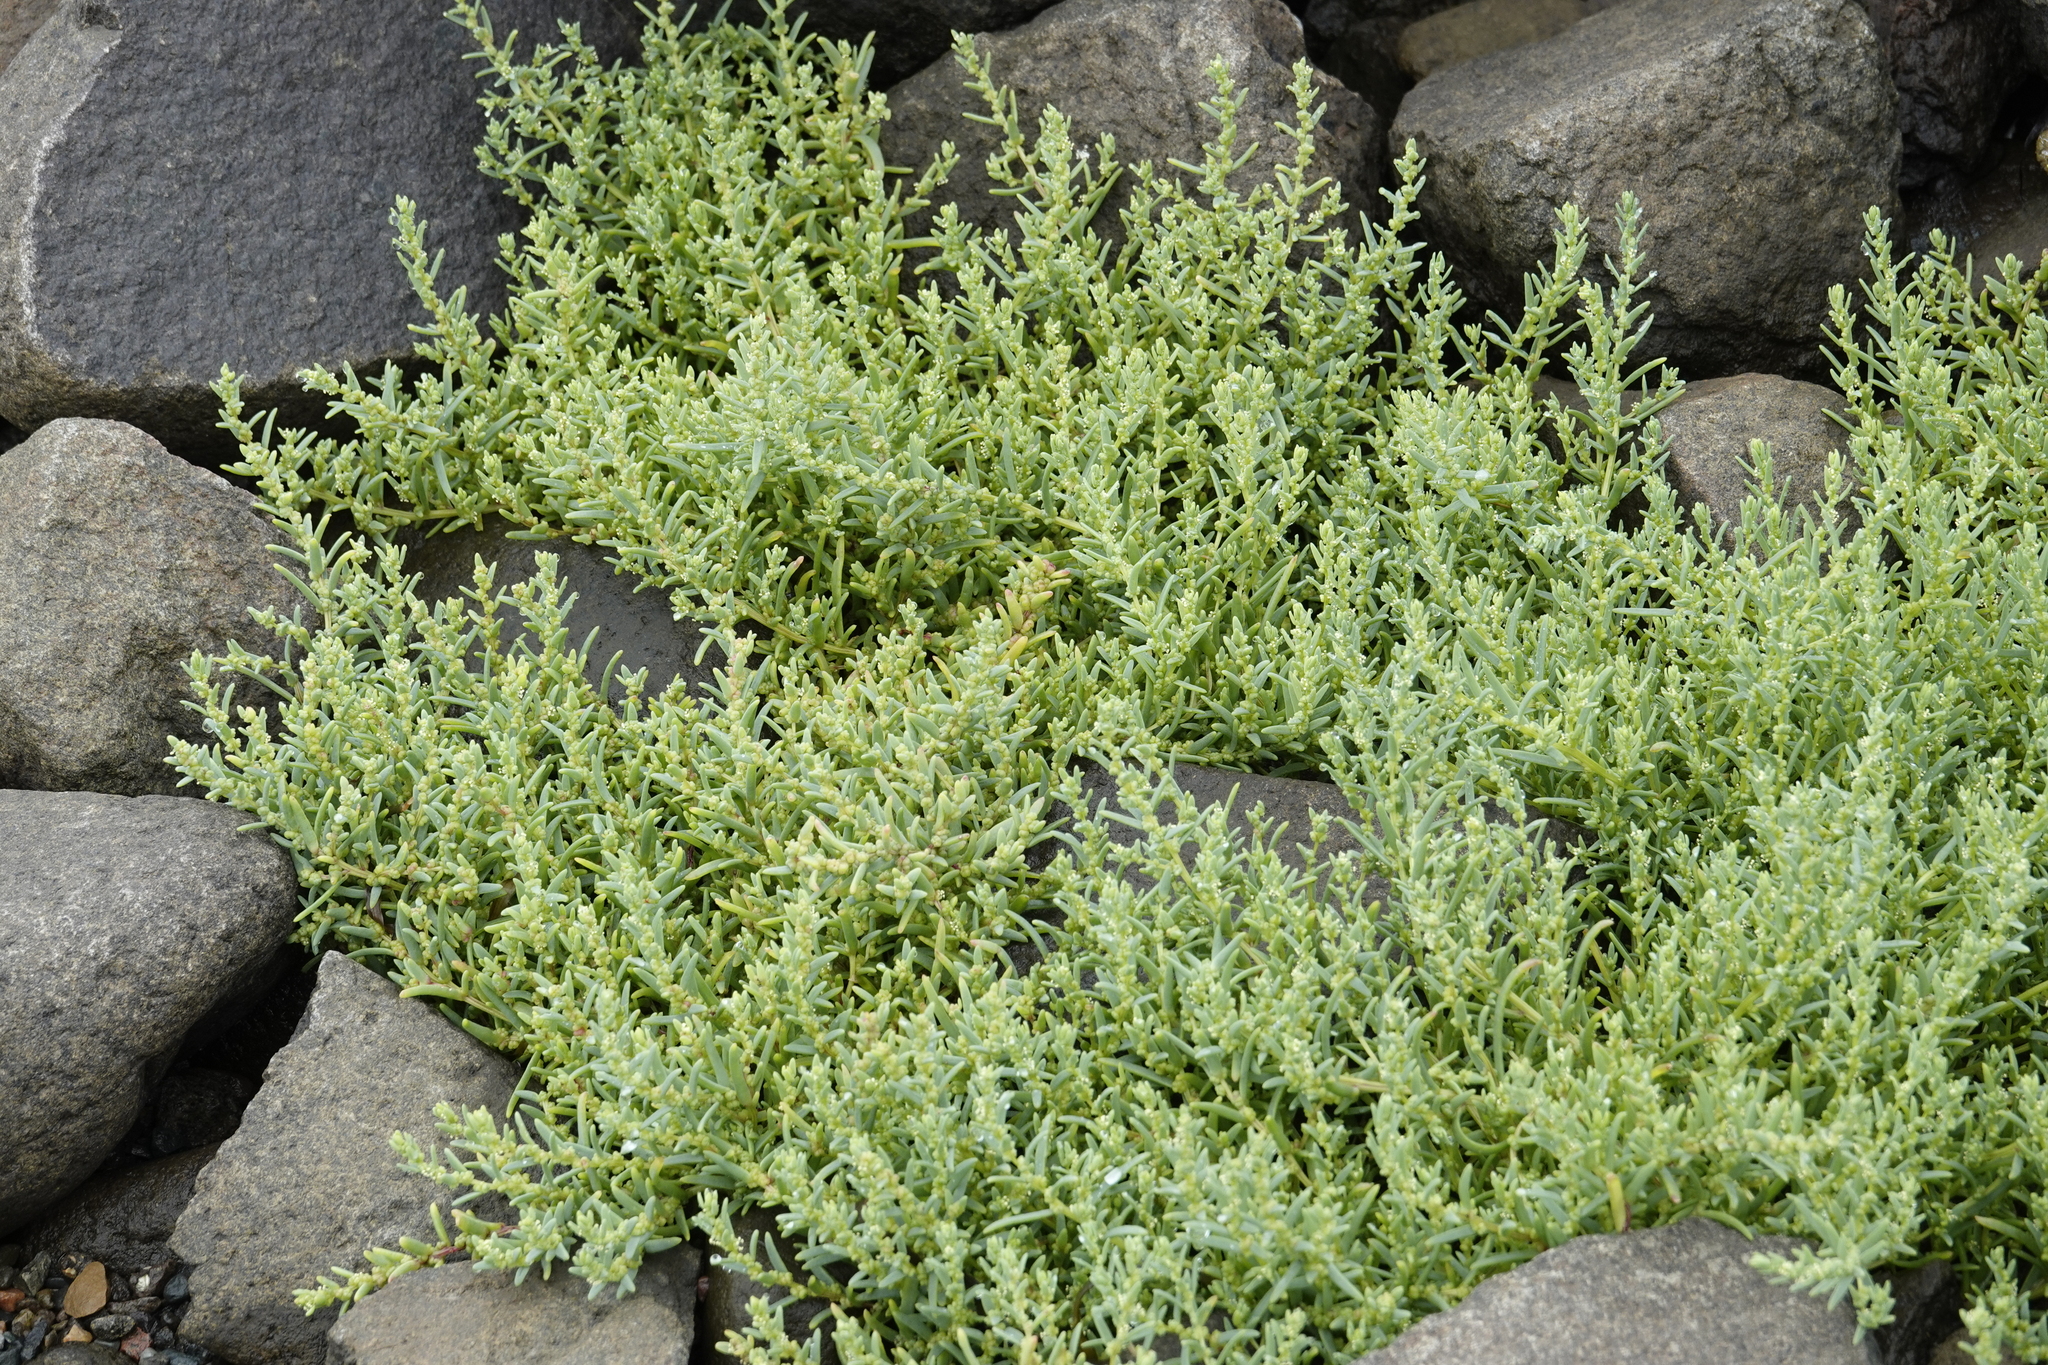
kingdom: Plantae
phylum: Tracheophyta
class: Magnoliopsida
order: Caryophyllales
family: Amaranthaceae
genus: Suaeda
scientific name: Suaeda maritima
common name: Annual sea-blite
